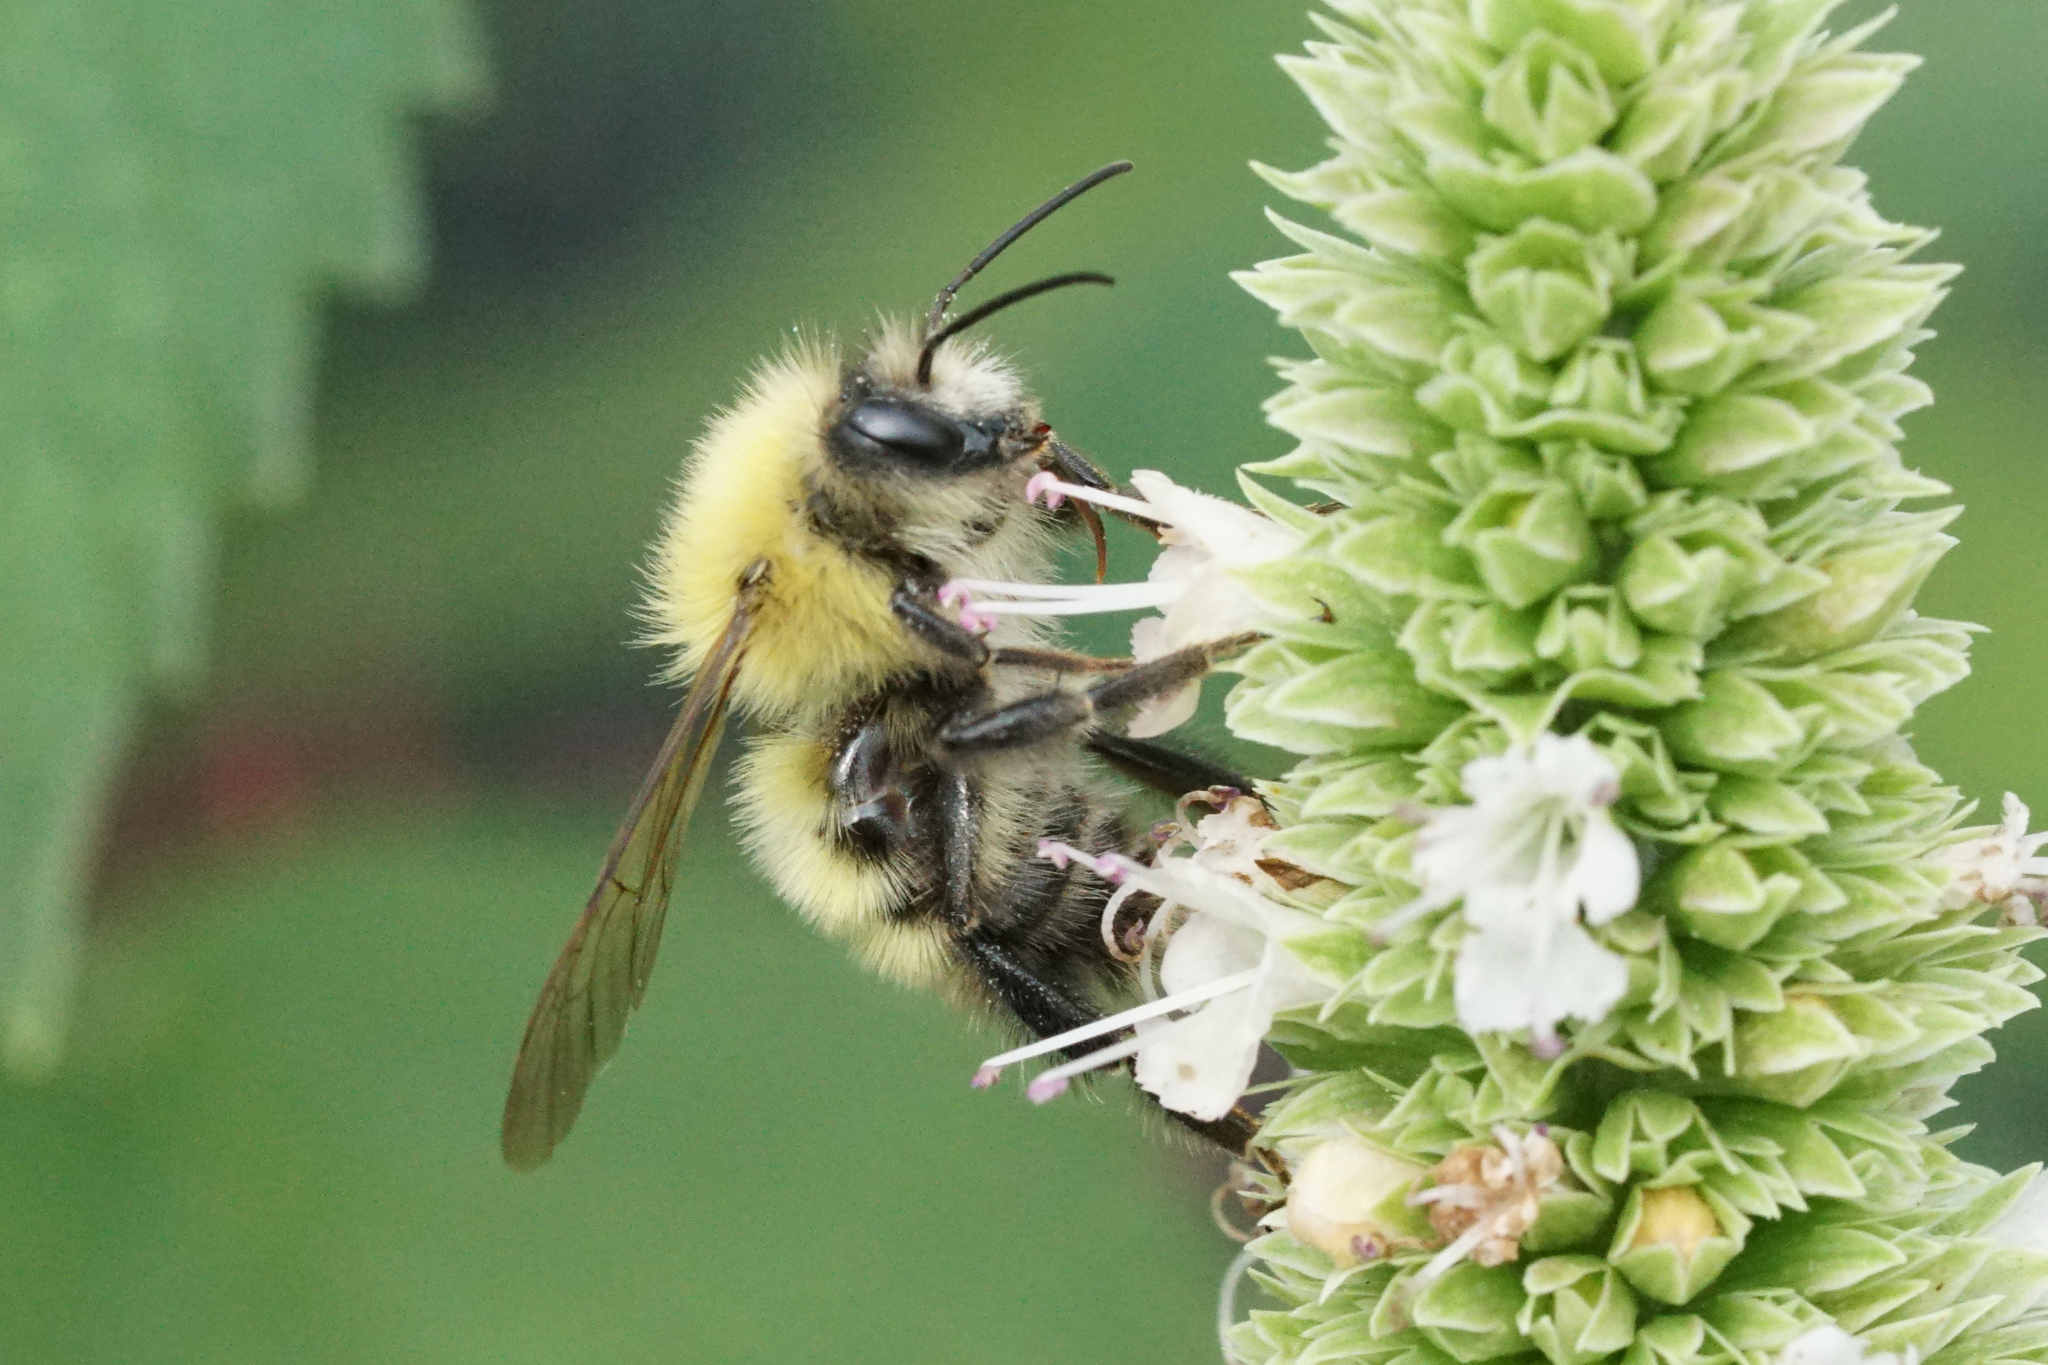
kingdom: Animalia
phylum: Arthropoda
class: Insecta
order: Hymenoptera
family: Apidae
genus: Bombus
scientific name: Bombus perplexus
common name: Confusing bumble bee
